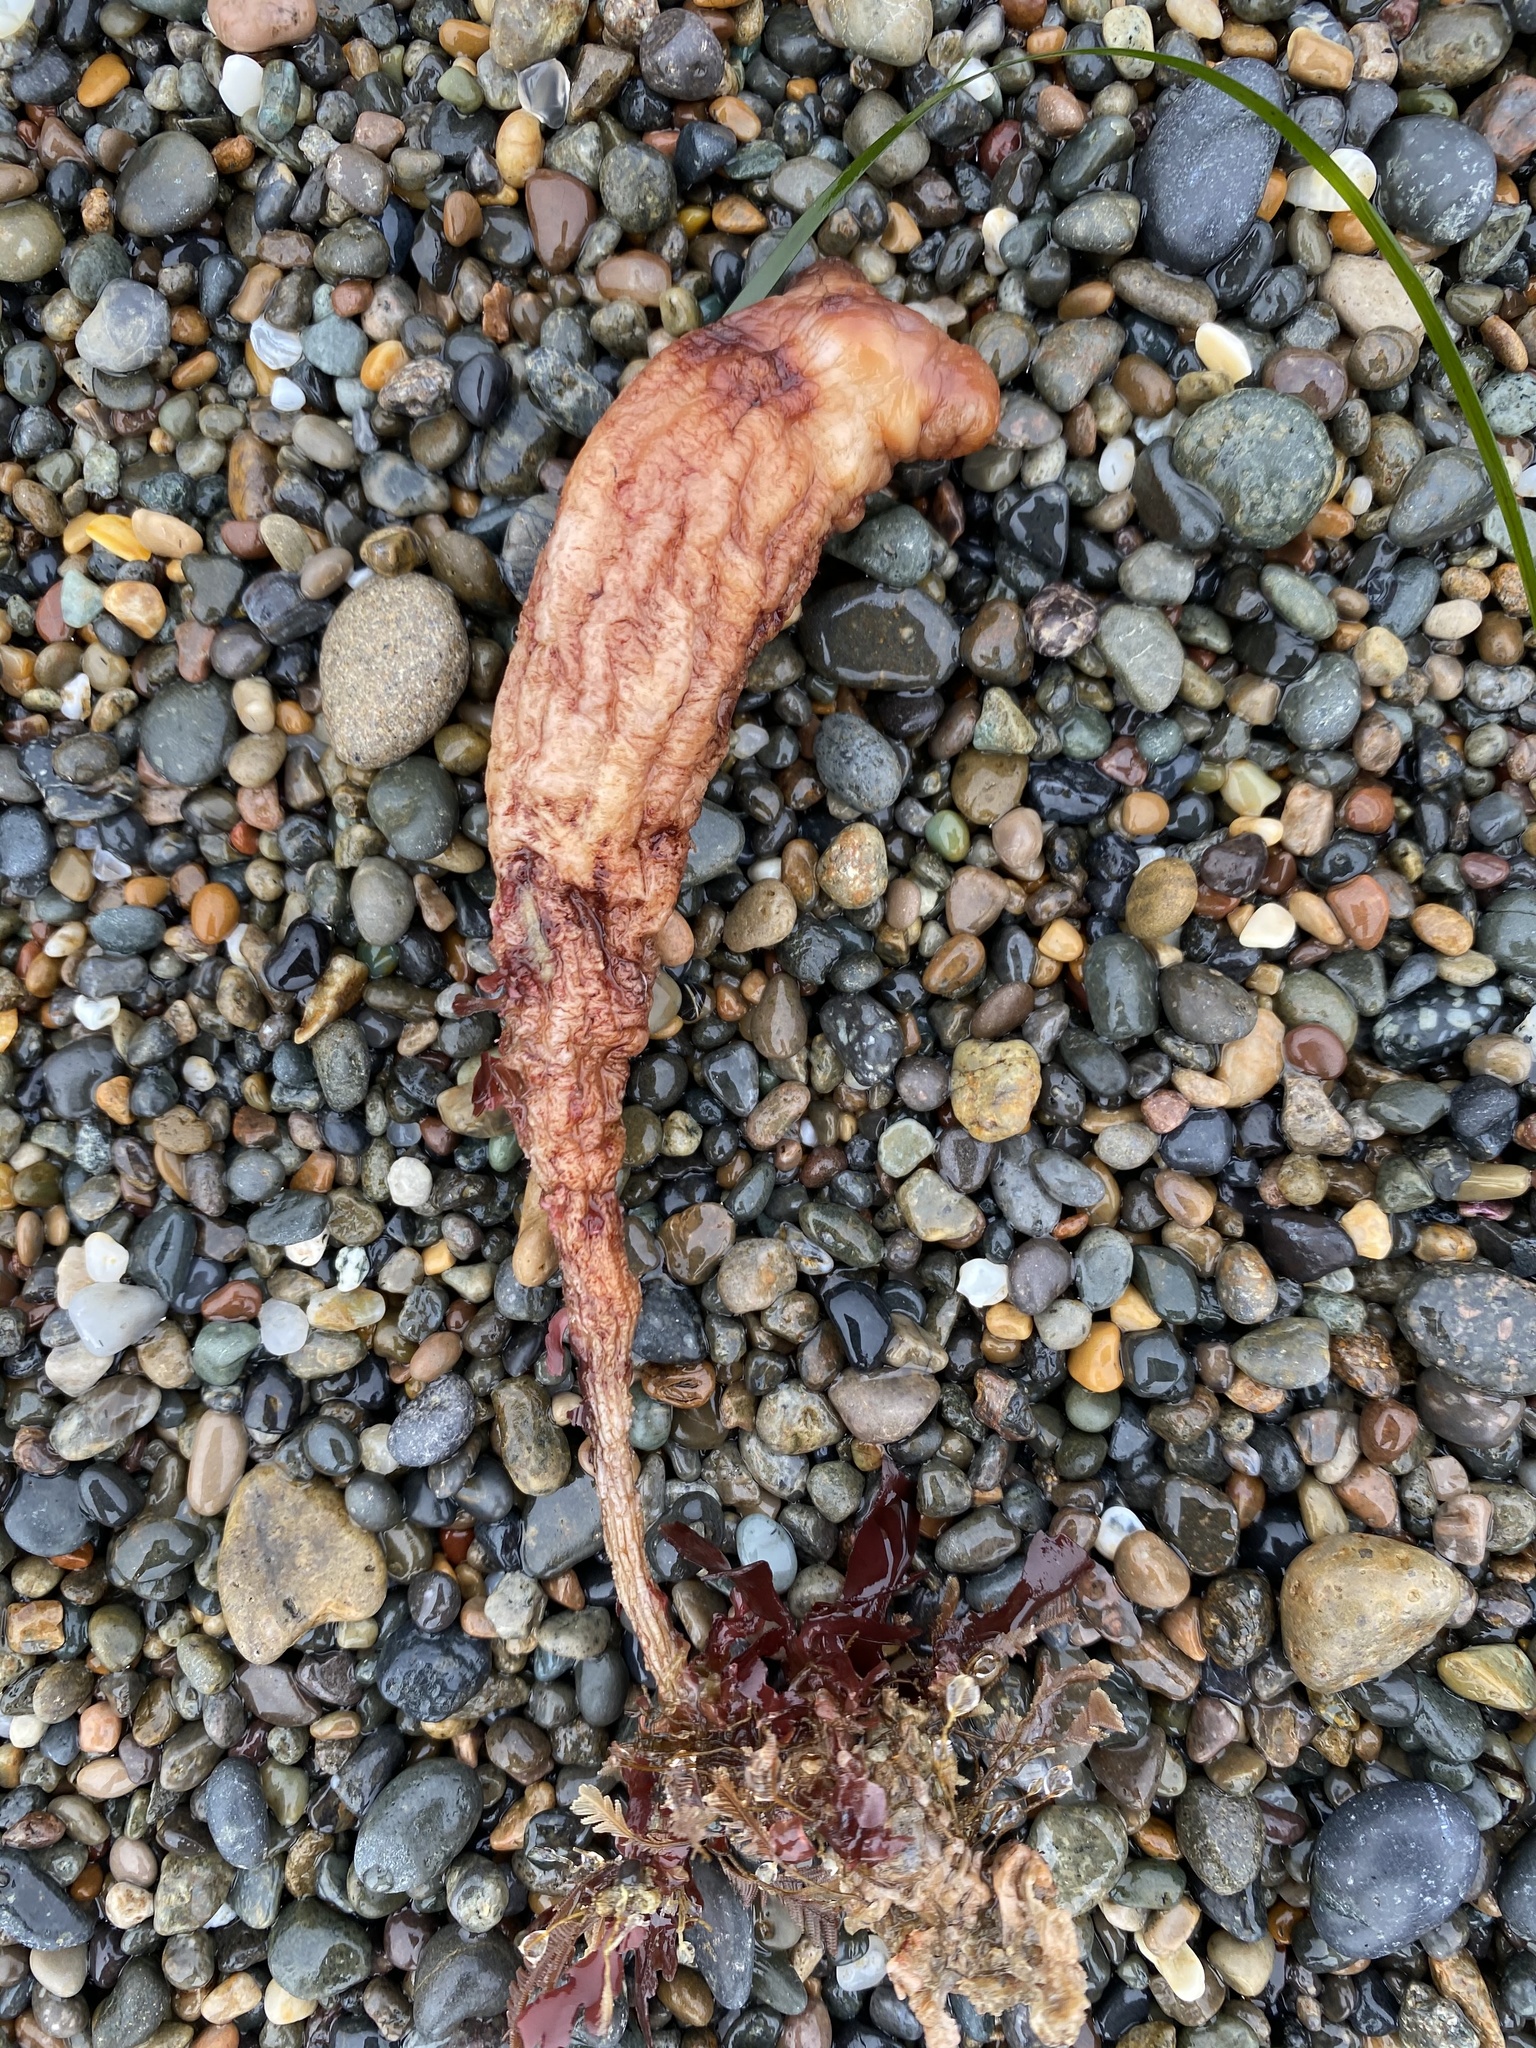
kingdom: Animalia
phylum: Chordata
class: Ascidiacea
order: Stolidobranchia
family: Styelidae
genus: Styela
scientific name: Styela montereyensis
